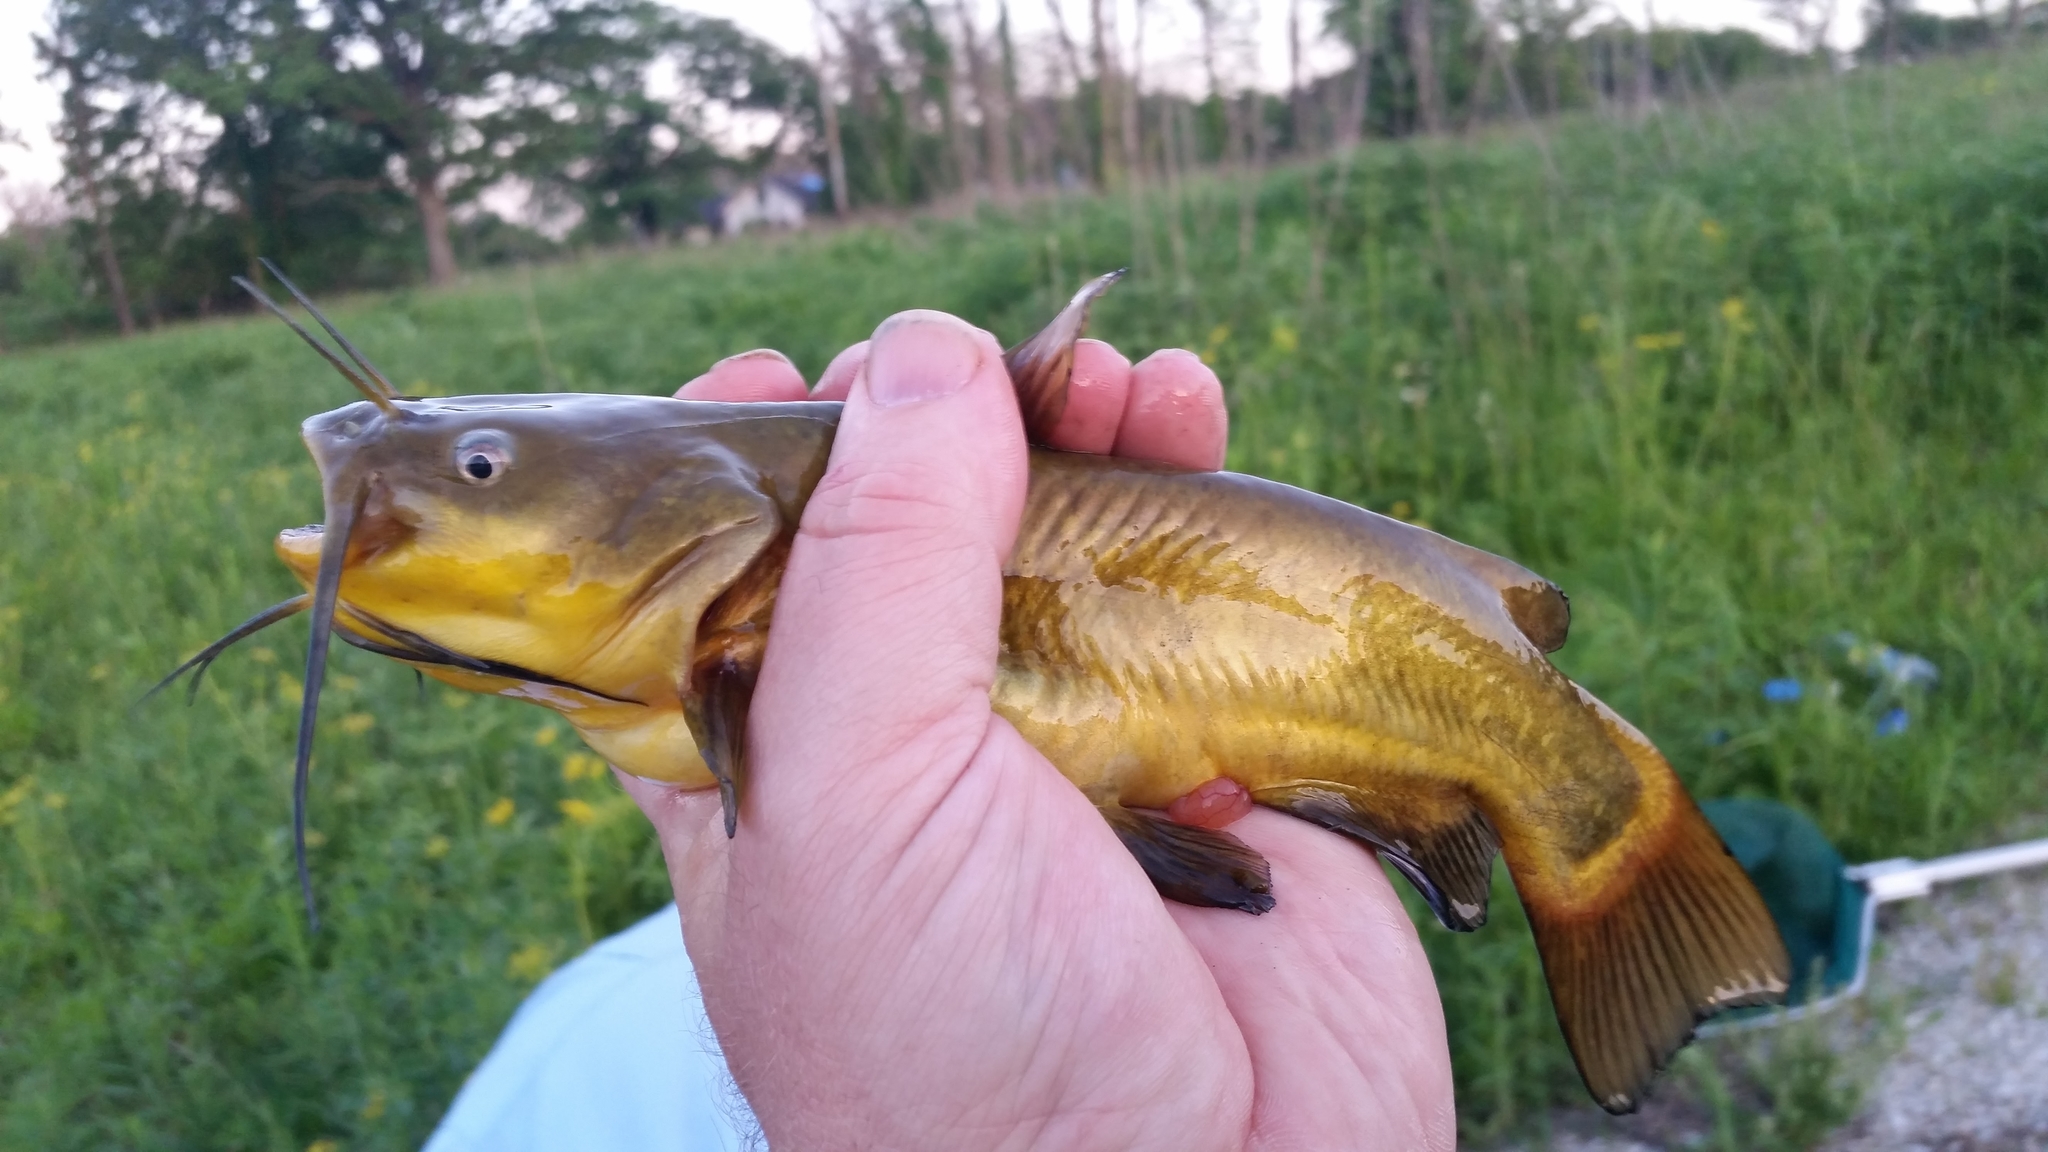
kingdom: Animalia
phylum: Chordata
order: Siluriformes
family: Ictaluridae
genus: Ameiurus
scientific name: Ameiurus melas
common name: Black bullhead
